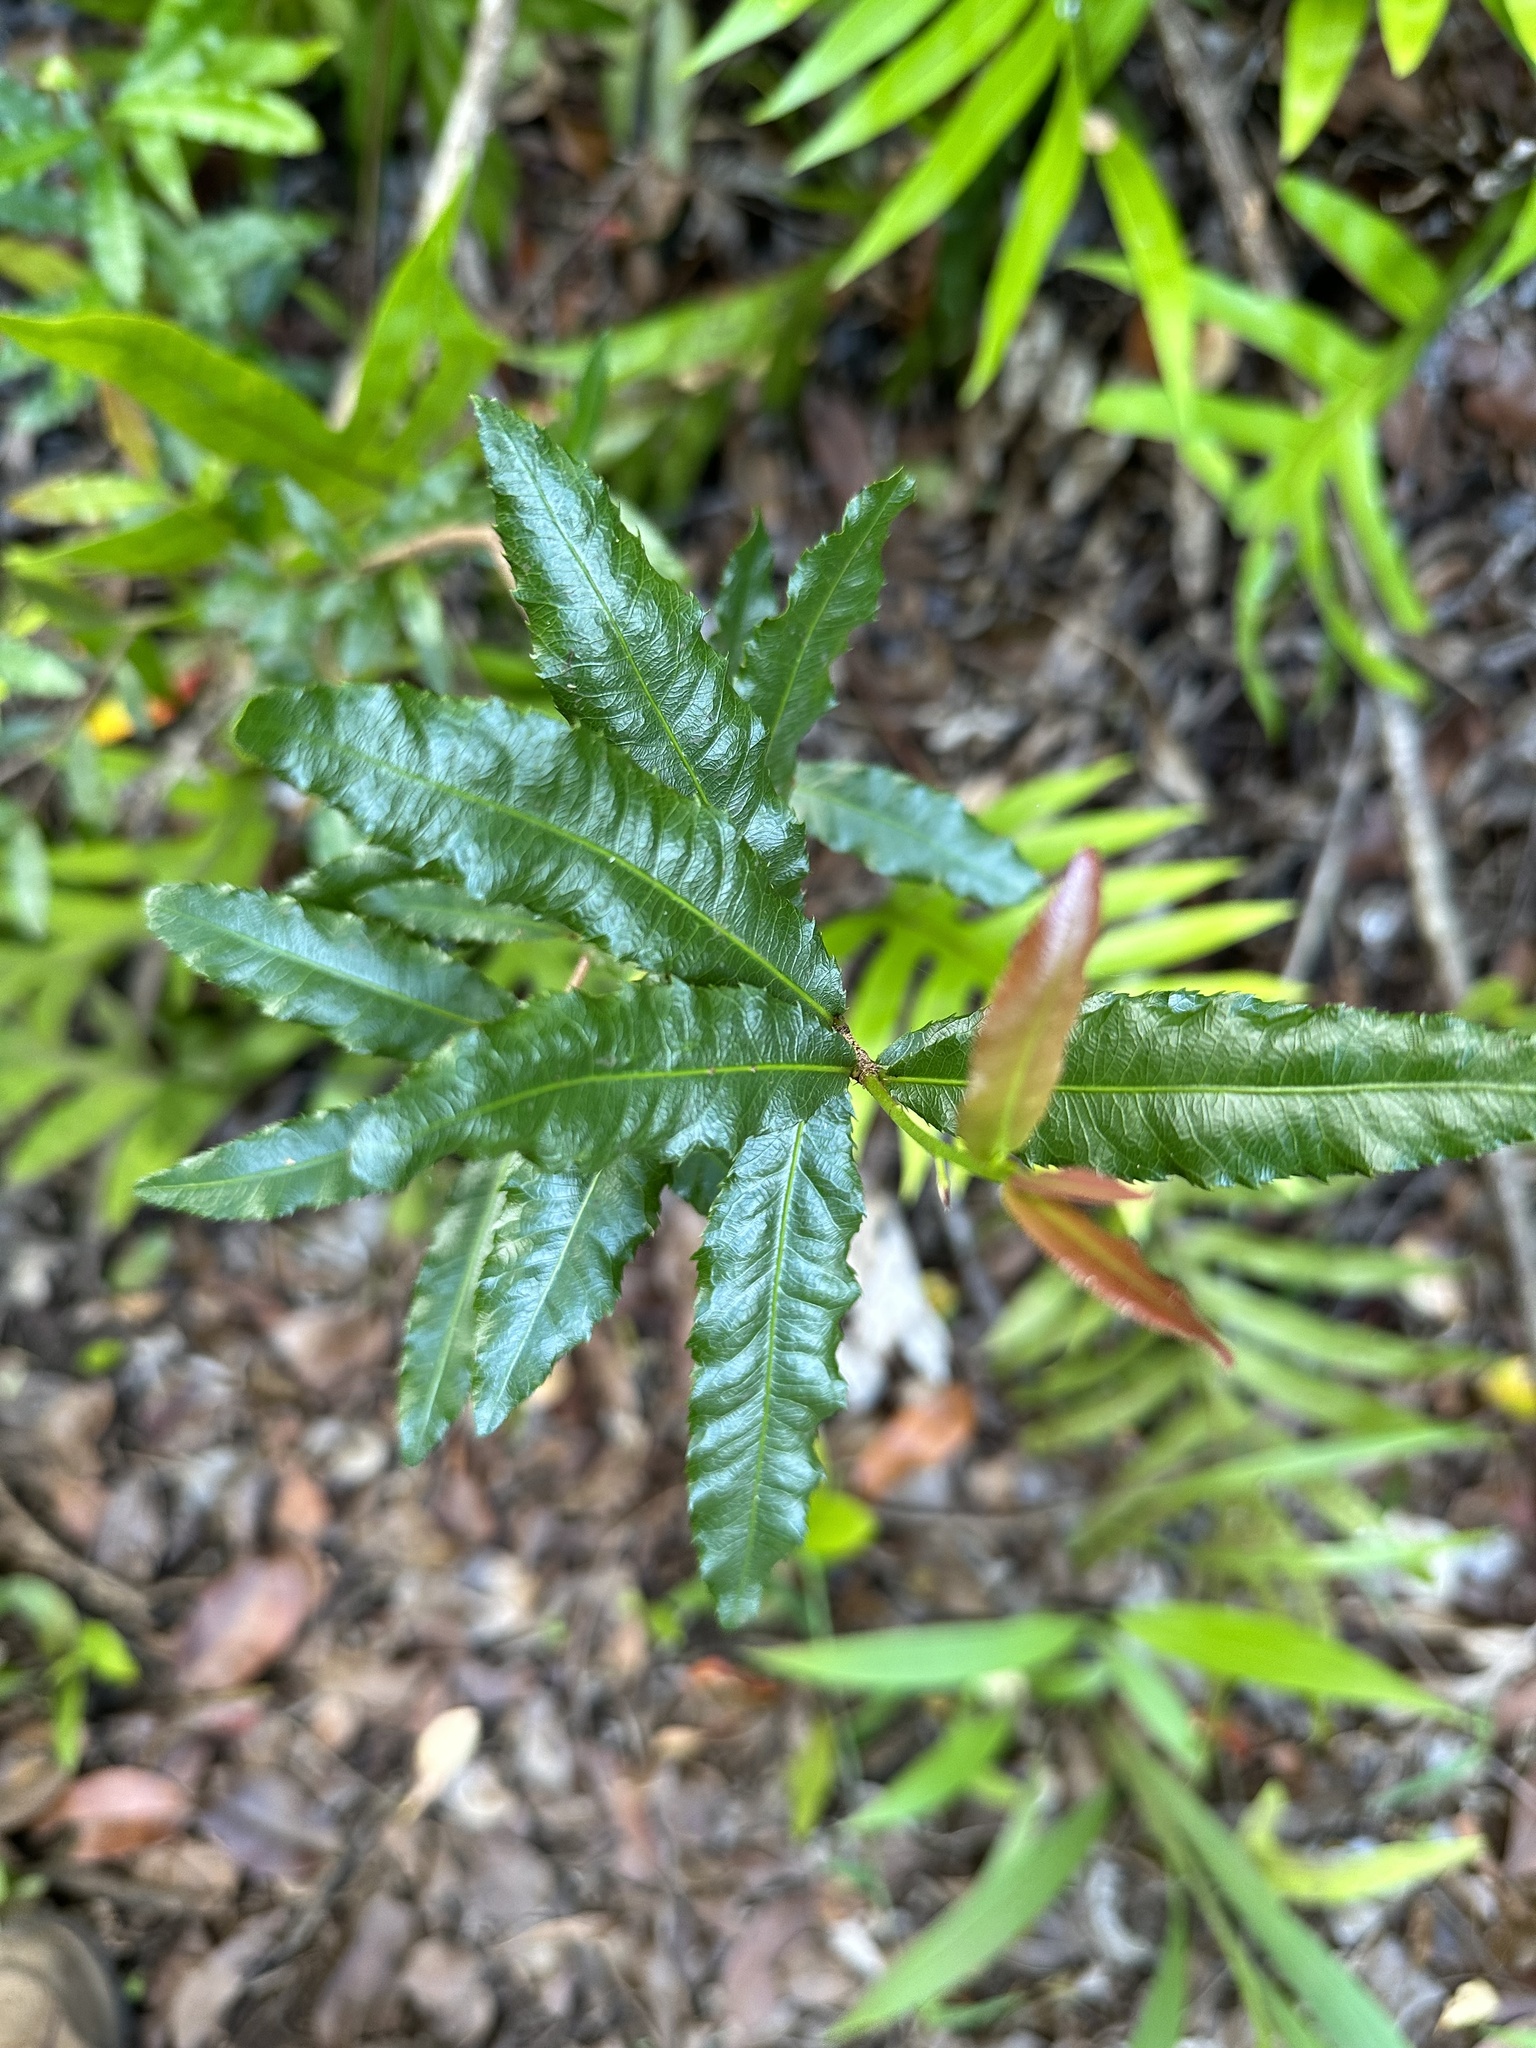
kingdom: Plantae
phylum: Tracheophyta
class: Magnoliopsida
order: Malpighiales
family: Ochnaceae
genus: Ochna
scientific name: Ochna serrulata
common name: Mickey mouse plant
